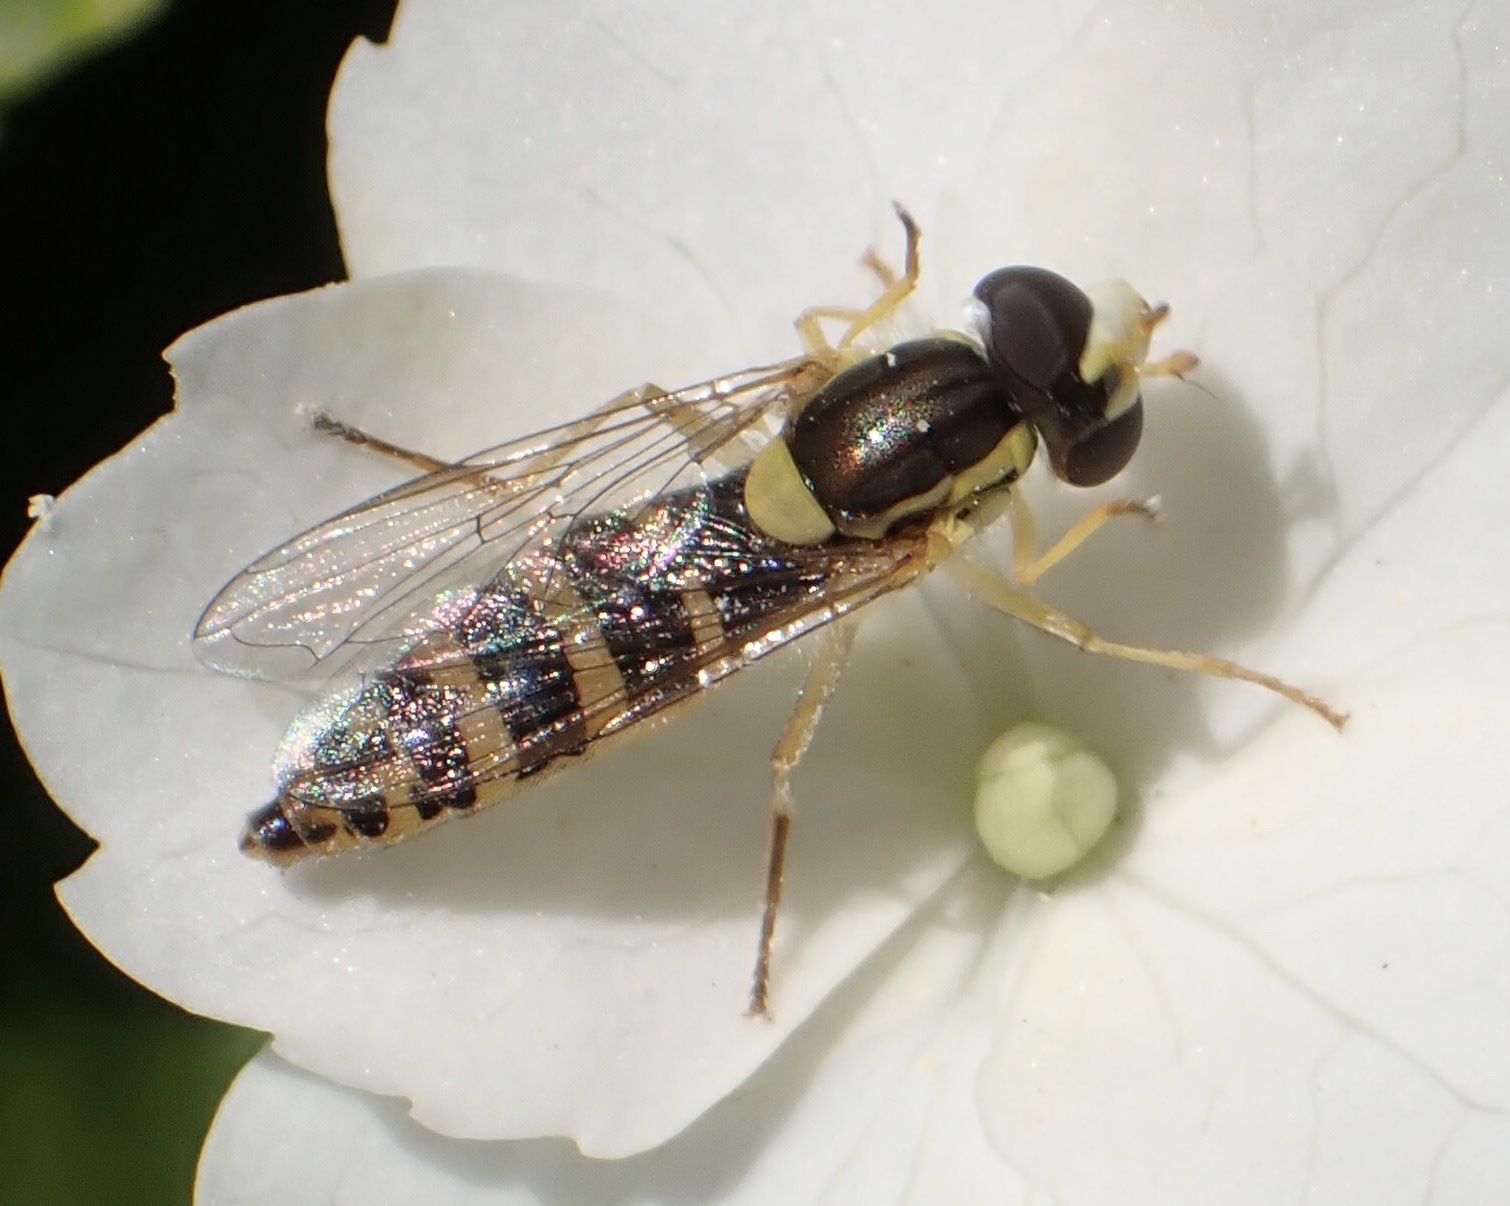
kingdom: Animalia
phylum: Arthropoda
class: Insecta
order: Diptera
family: Syrphidae
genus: Sphaerophoria
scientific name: Sphaerophoria
